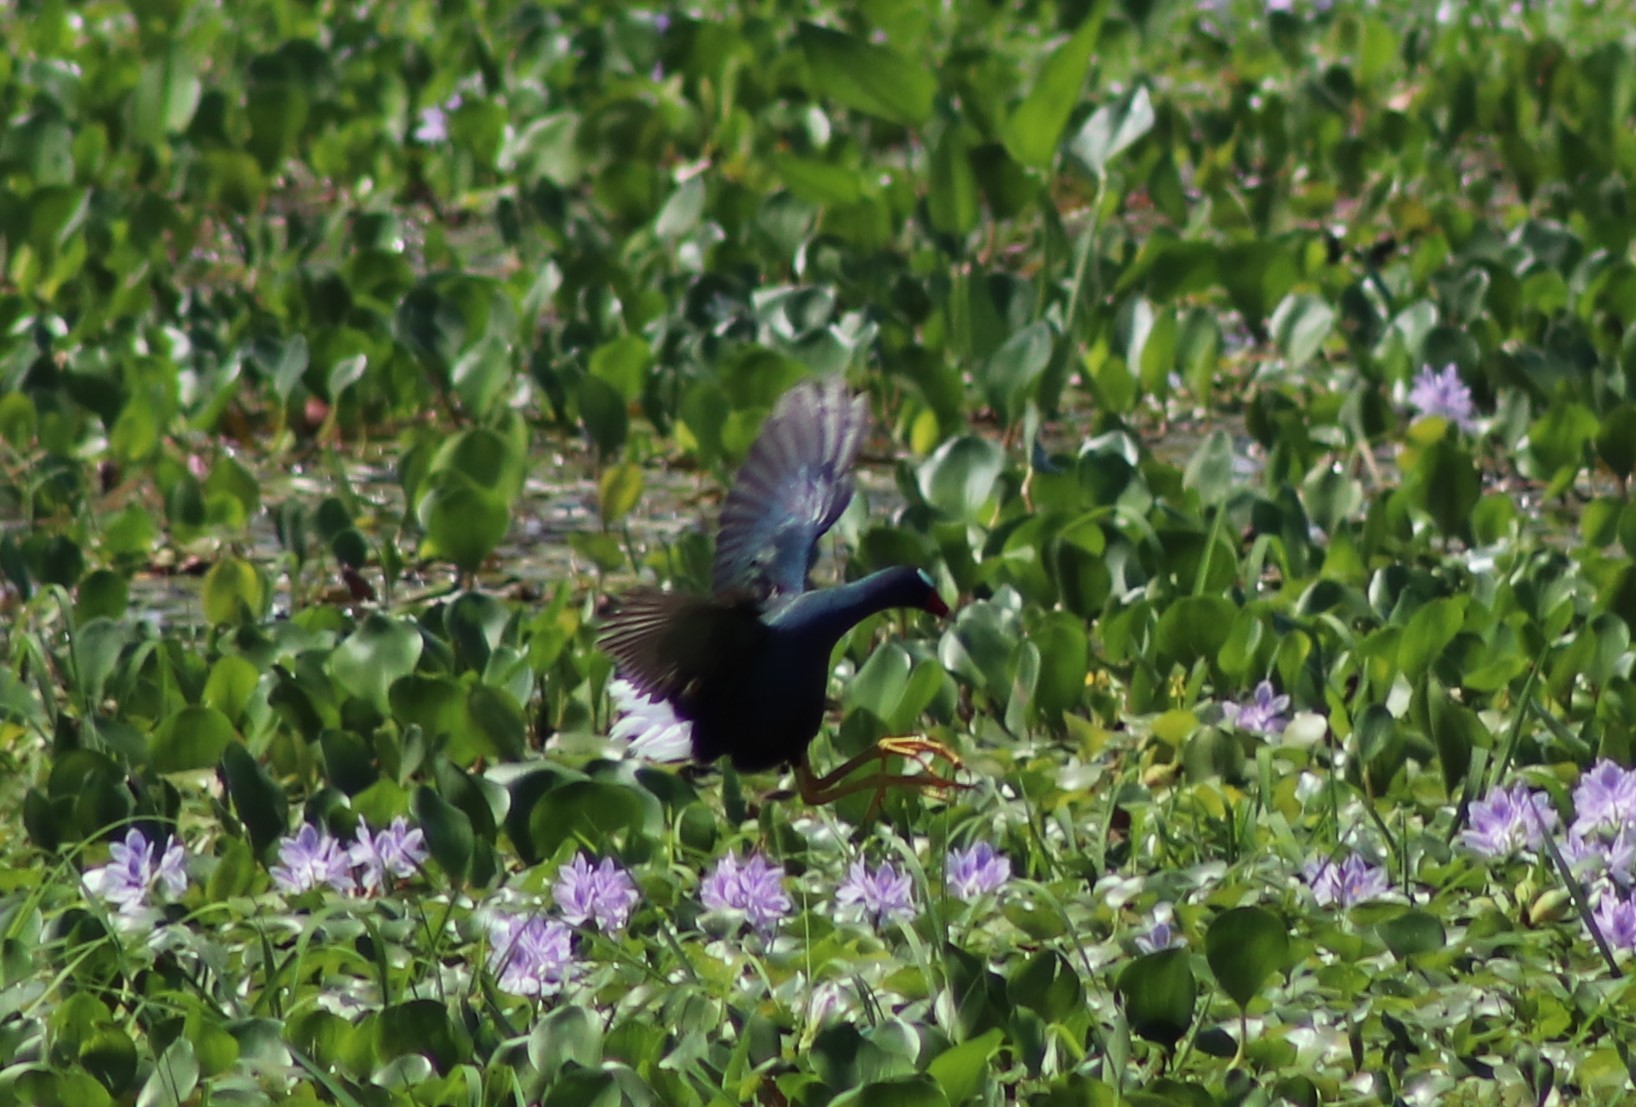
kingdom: Animalia
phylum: Chordata
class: Aves
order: Gruiformes
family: Rallidae
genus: Porphyrio
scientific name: Porphyrio martinica
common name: Purple gallinule
